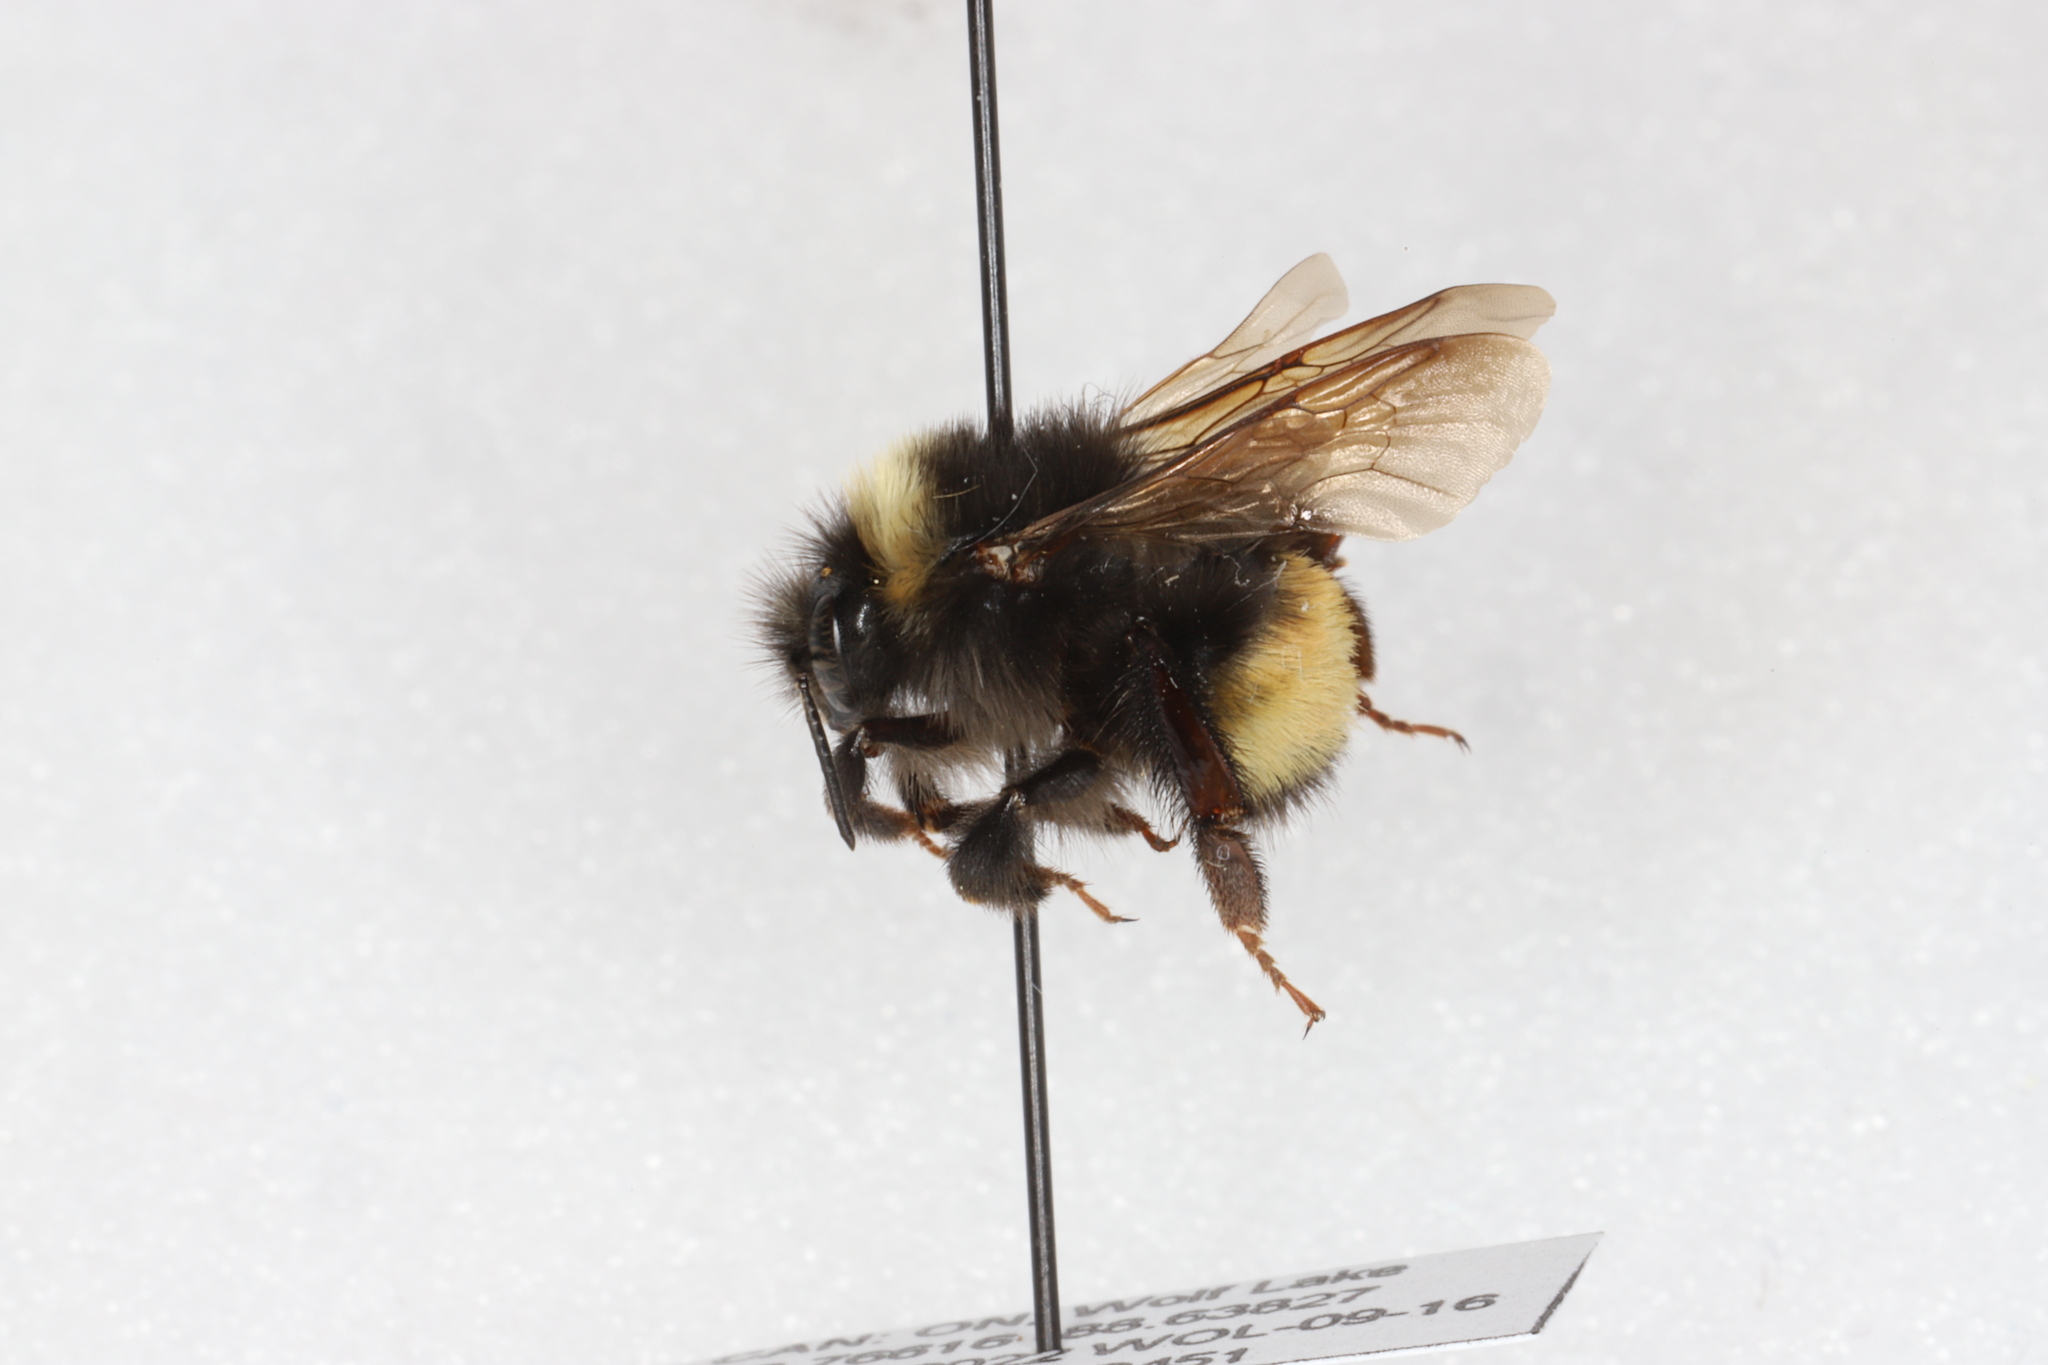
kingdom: Animalia
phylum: Arthropoda
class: Insecta
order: Hymenoptera
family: Apidae
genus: Bombus
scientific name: Bombus terricola
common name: Yellow-banded bumble bee
